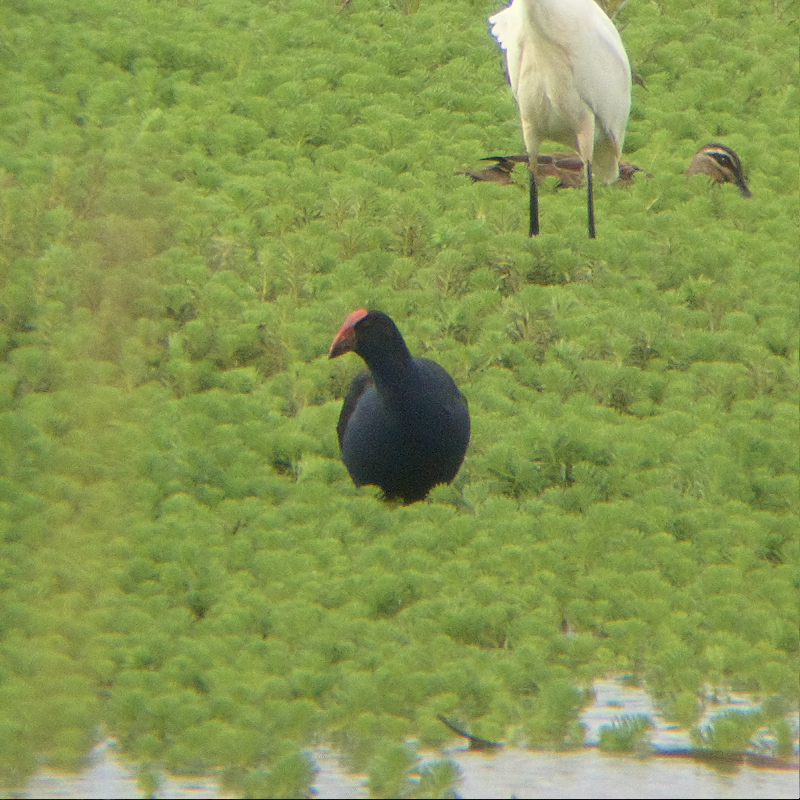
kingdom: Animalia
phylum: Chordata
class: Aves
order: Gruiformes
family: Rallidae
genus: Porphyrio
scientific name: Porphyrio melanotus
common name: Australasian swamphen
